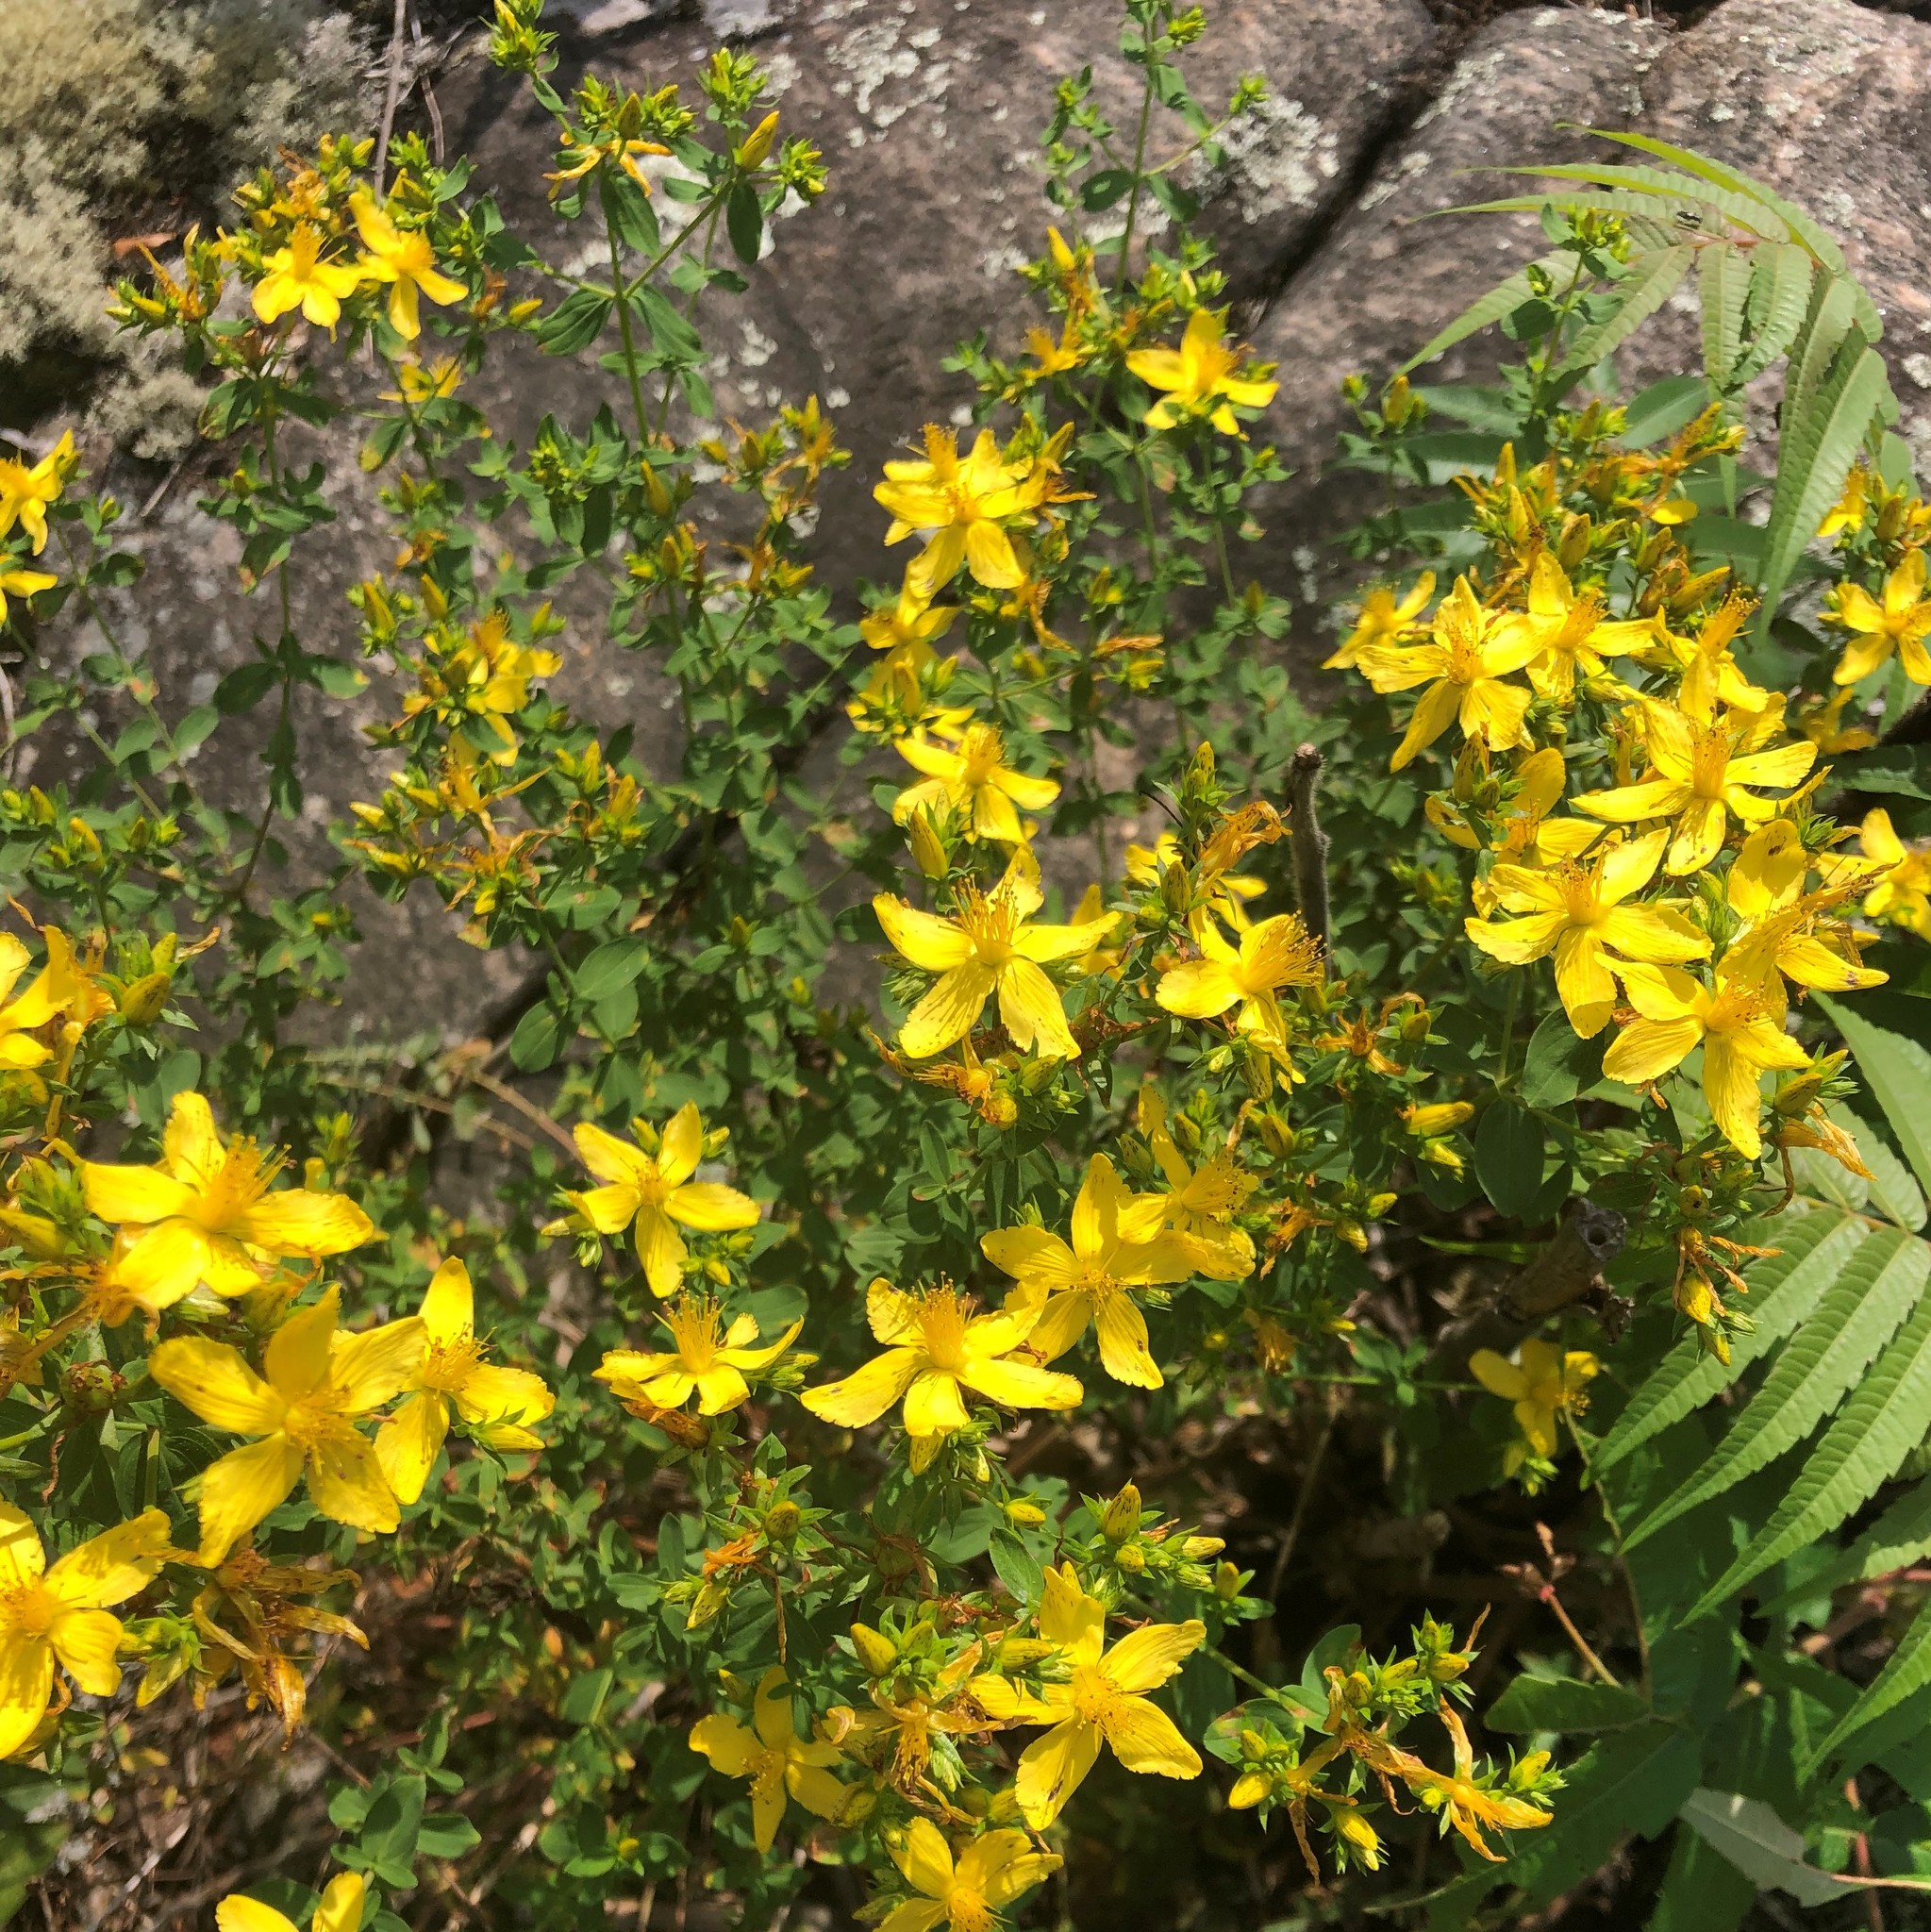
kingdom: Plantae
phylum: Tracheophyta
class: Magnoliopsida
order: Malpighiales
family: Hypericaceae
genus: Hypericum
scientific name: Hypericum perforatum
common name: Common st. johnswort
